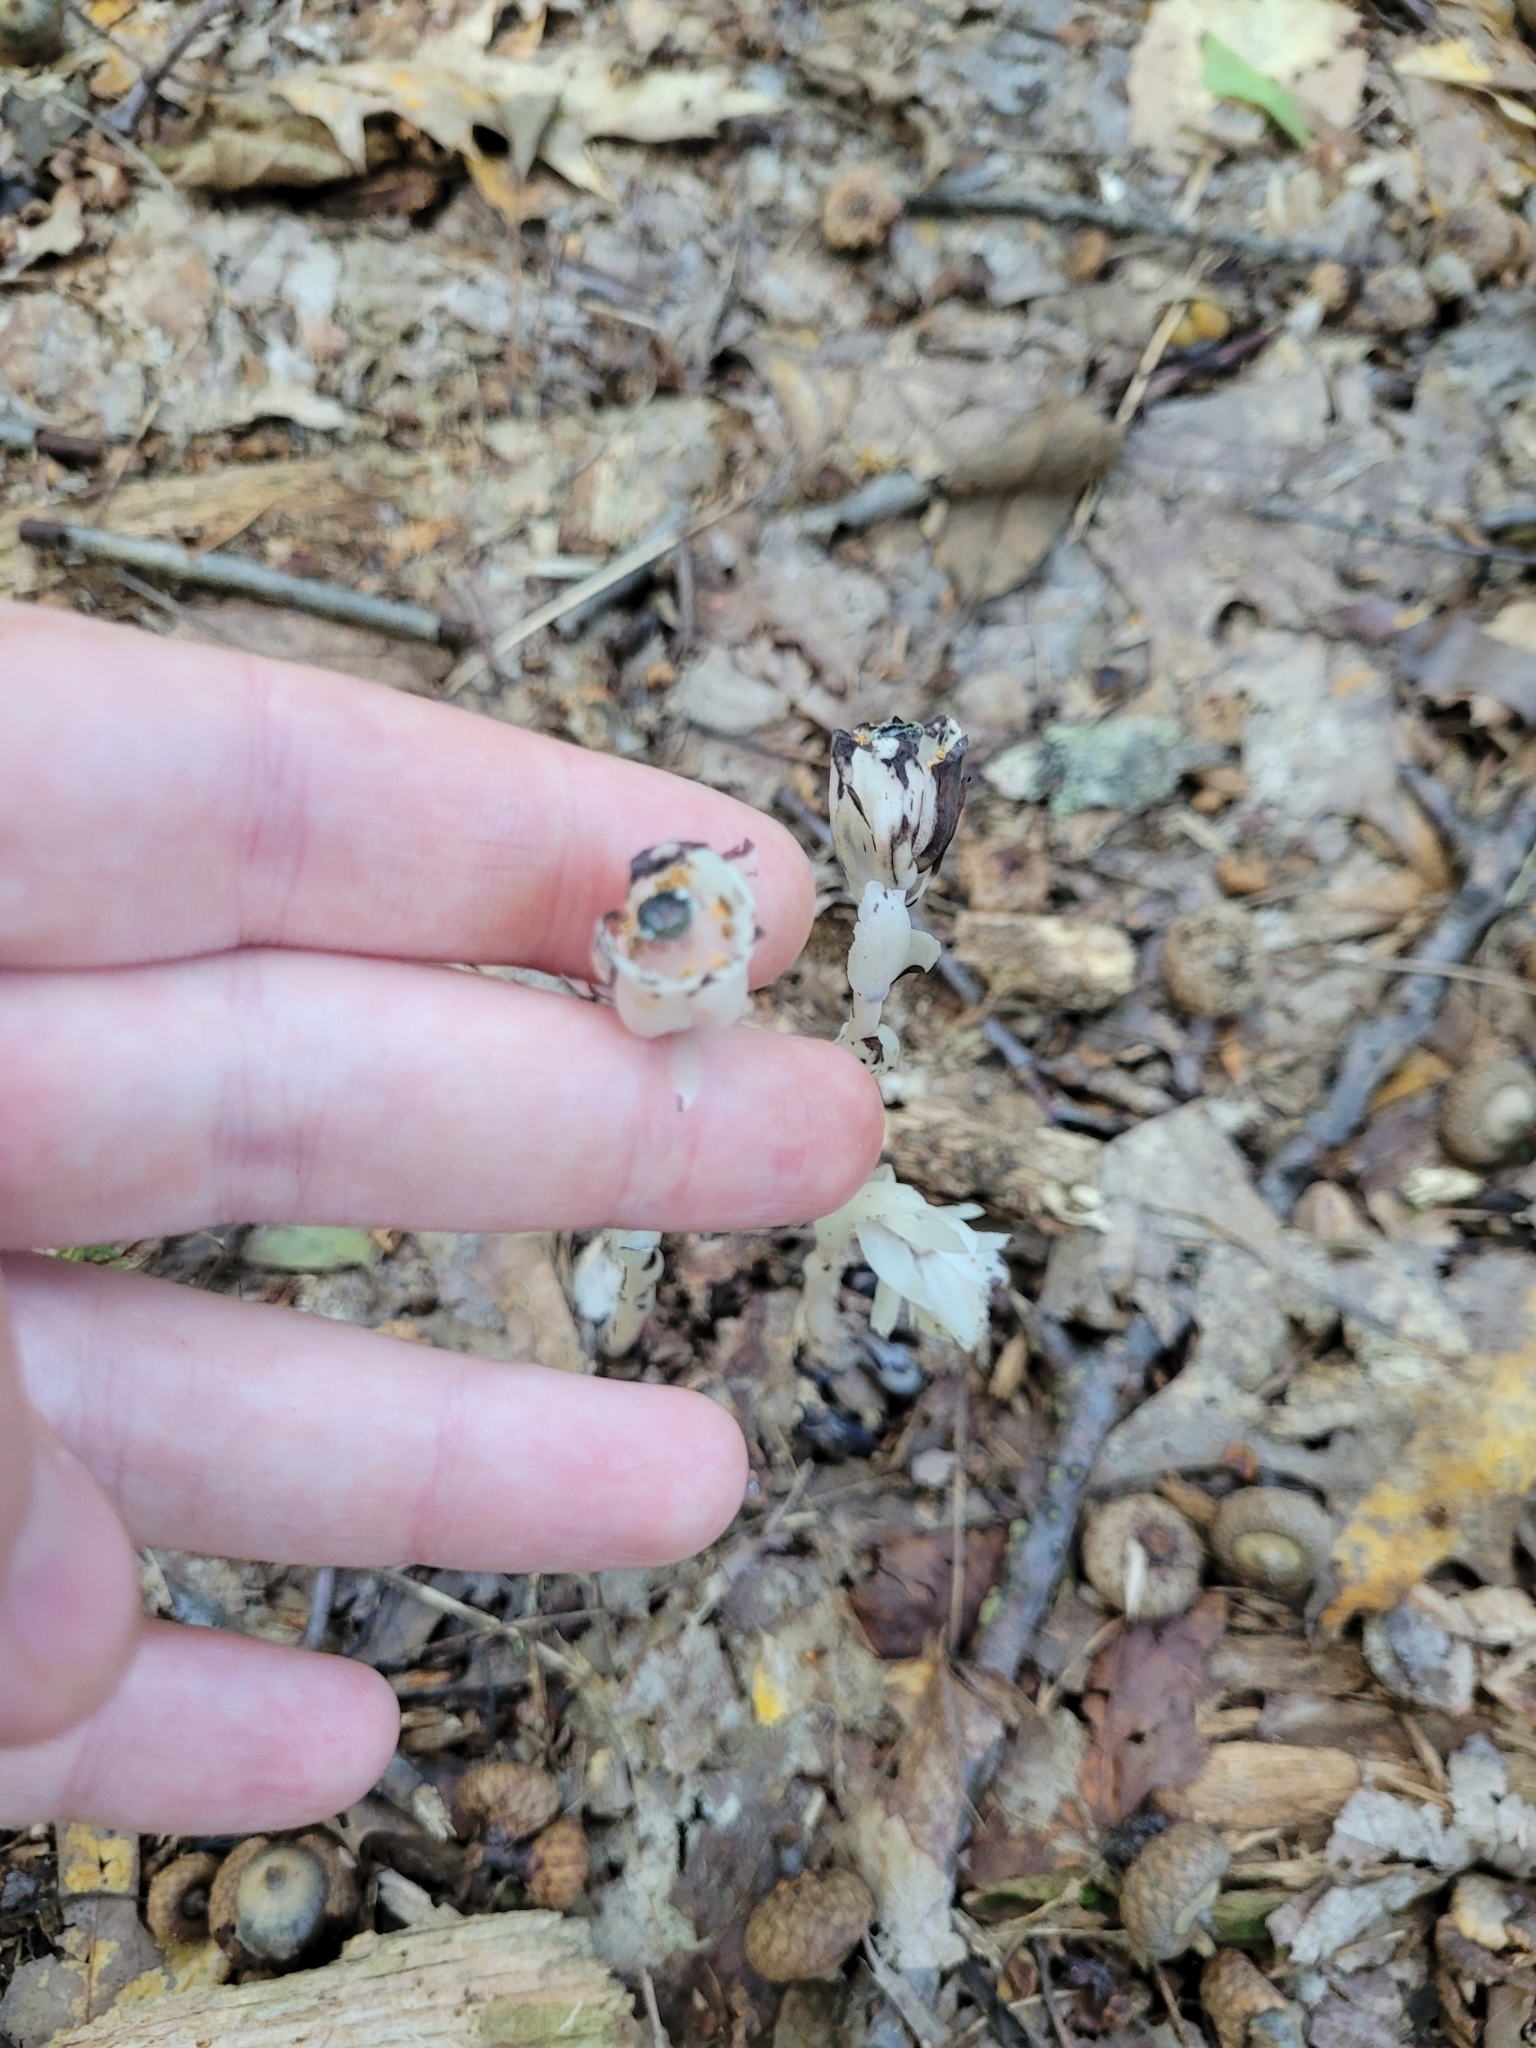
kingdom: Plantae
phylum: Tracheophyta
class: Magnoliopsida
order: Ericales
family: Ericaceae
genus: Monotropa
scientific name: Monotropa uniflora
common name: Convulsion root
